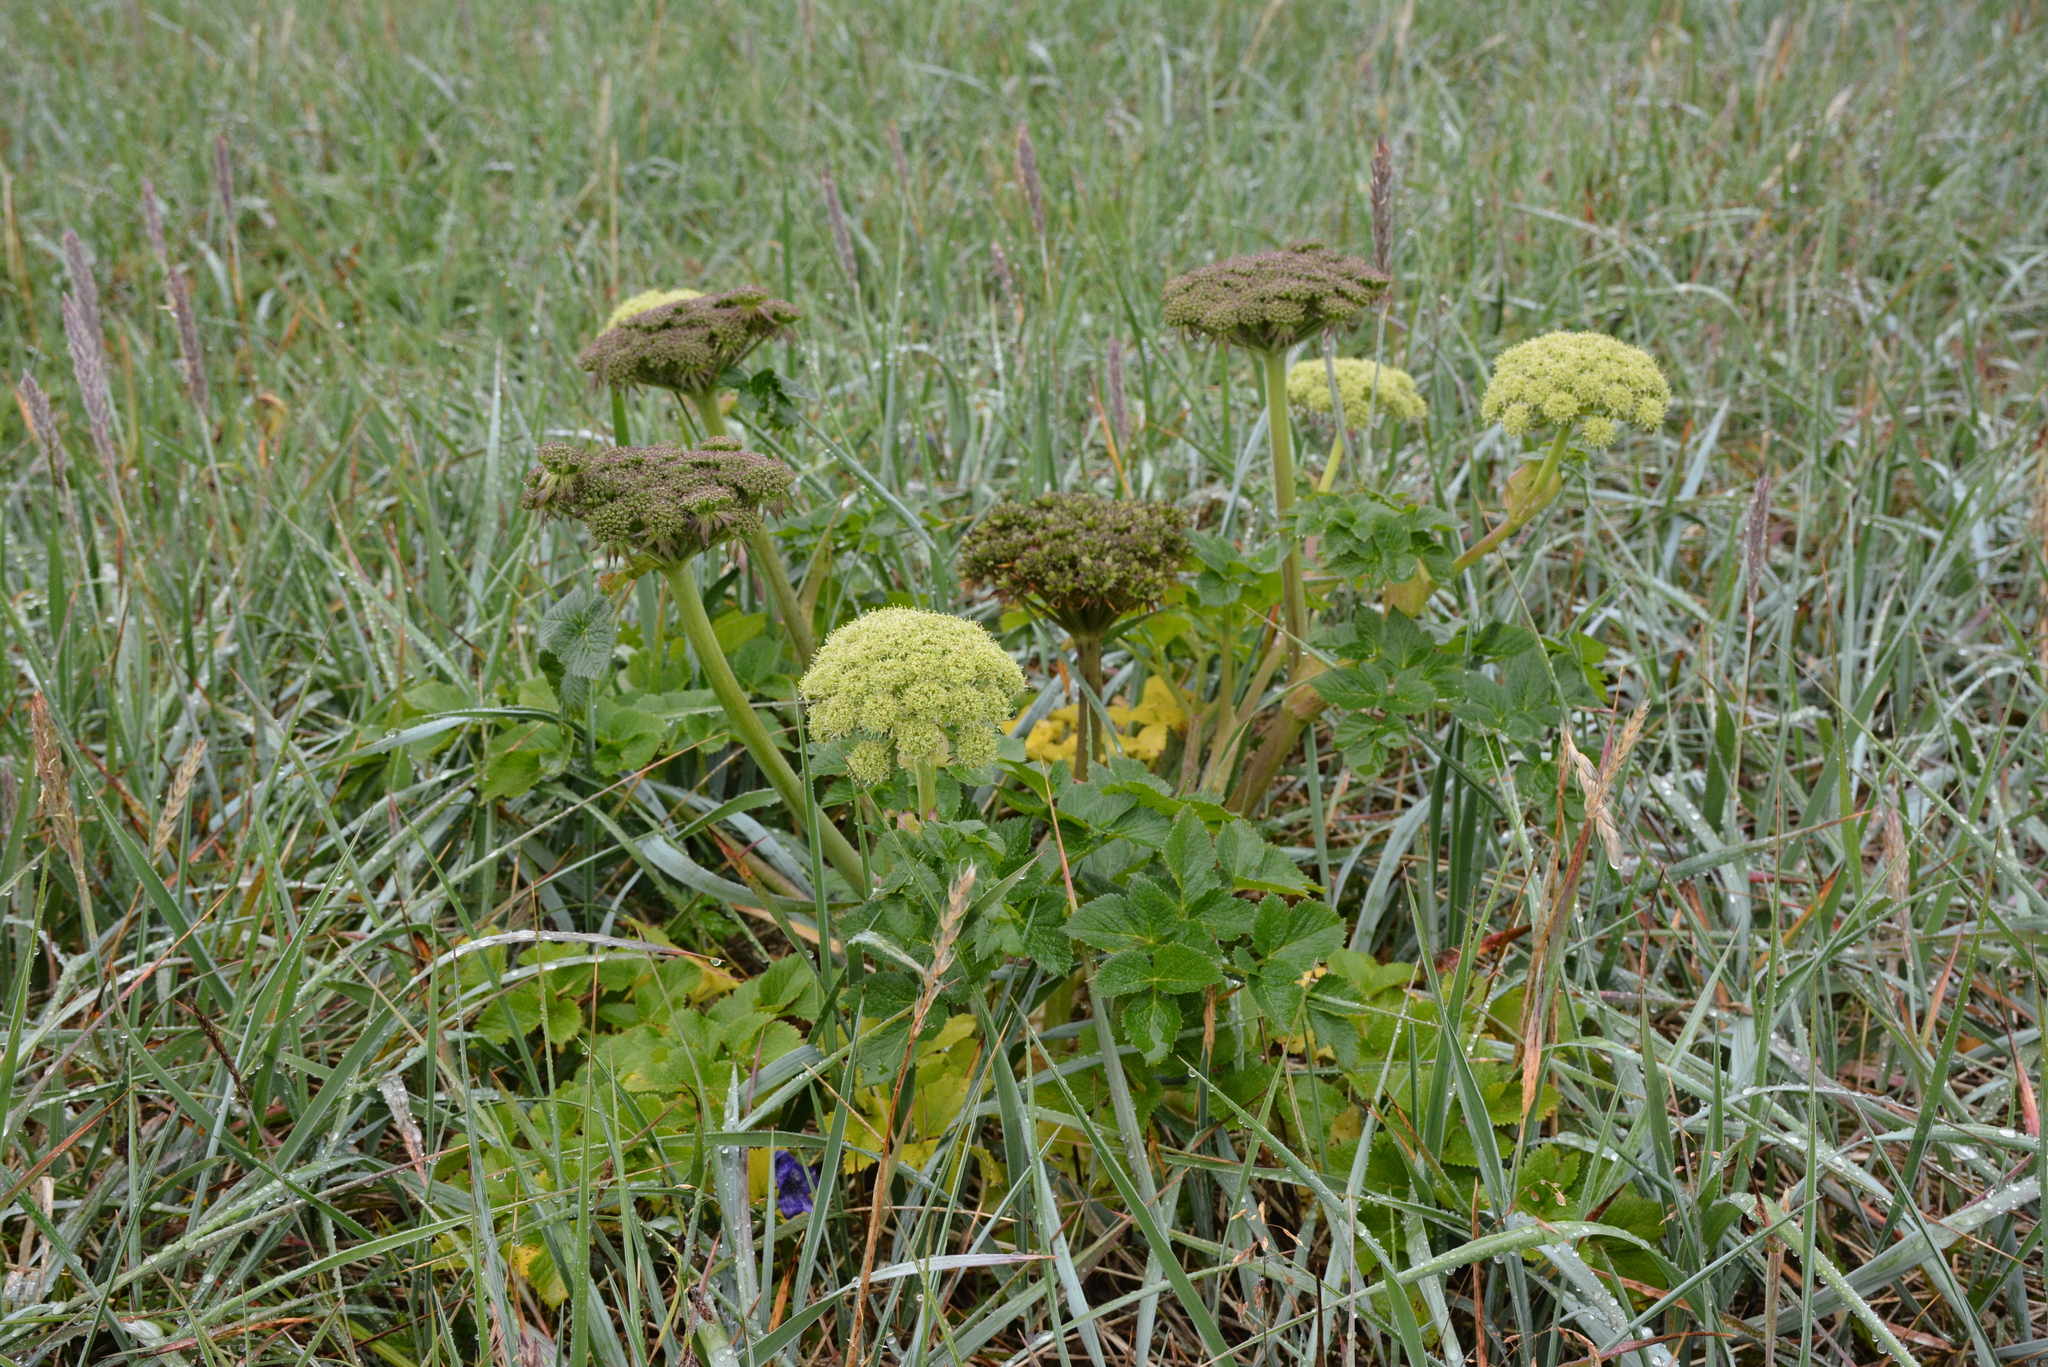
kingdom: Plantae
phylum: Tracheophyta
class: Magnoliopsida
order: Apiales
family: Apiaceae
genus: Angelica
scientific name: Angelica gmelinii
